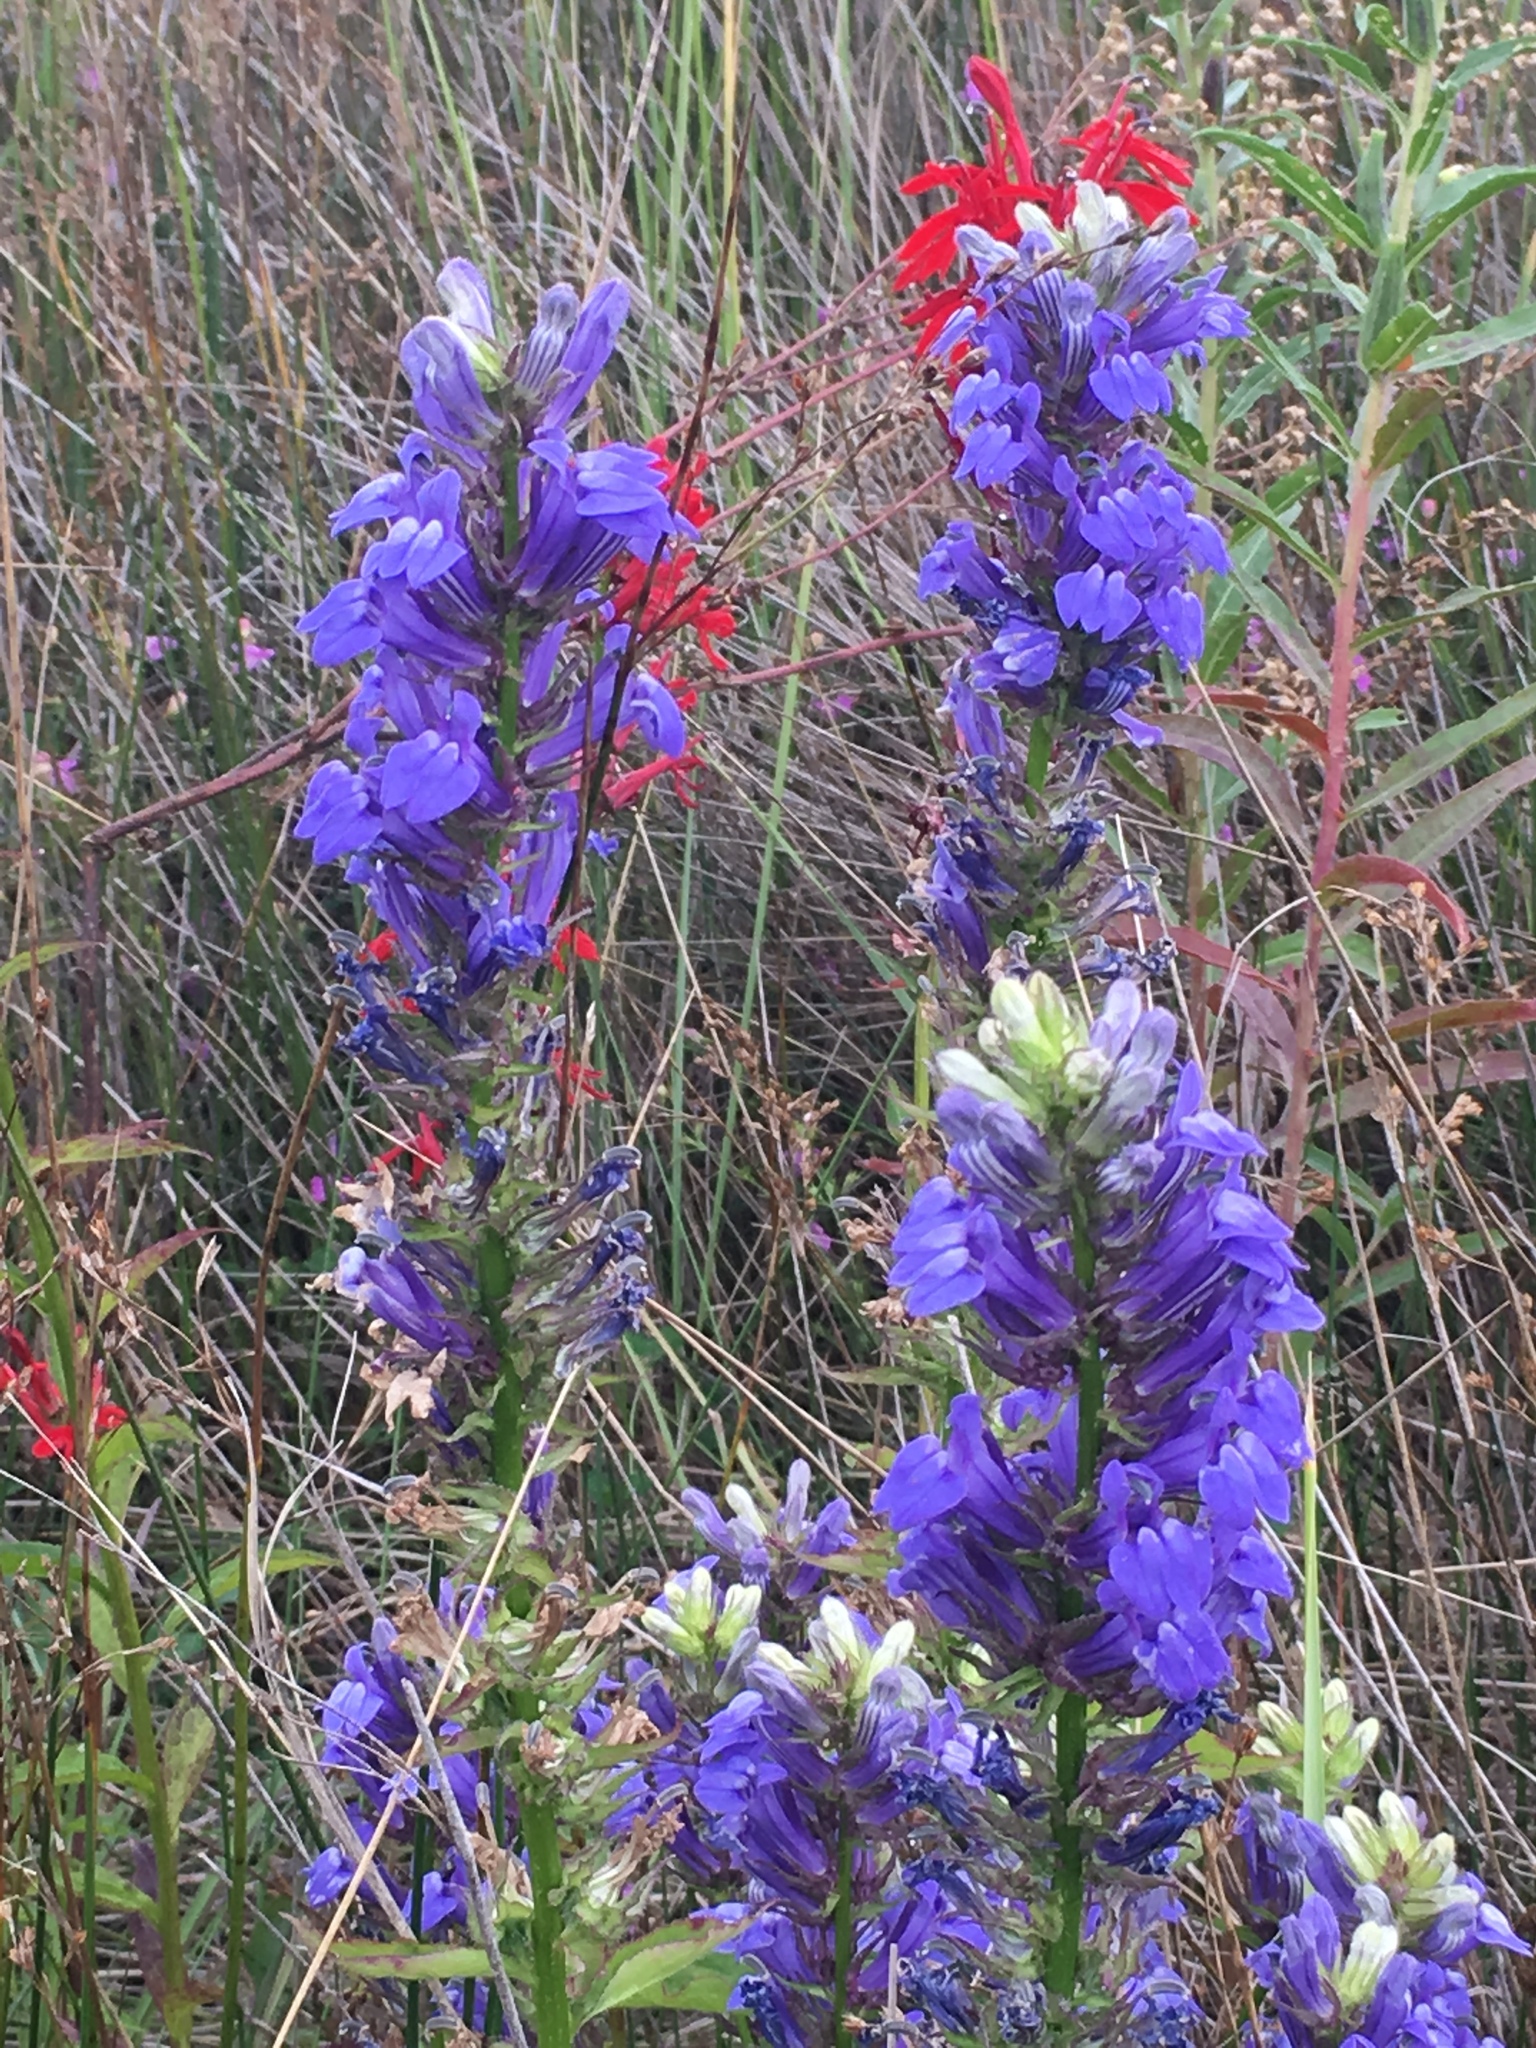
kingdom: Plantae
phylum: Tracheophyta
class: Magnoliopsida
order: Asterales
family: Campanulaceae
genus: Lobelia
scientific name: Lobelia siphilitica
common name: Great lobelia
